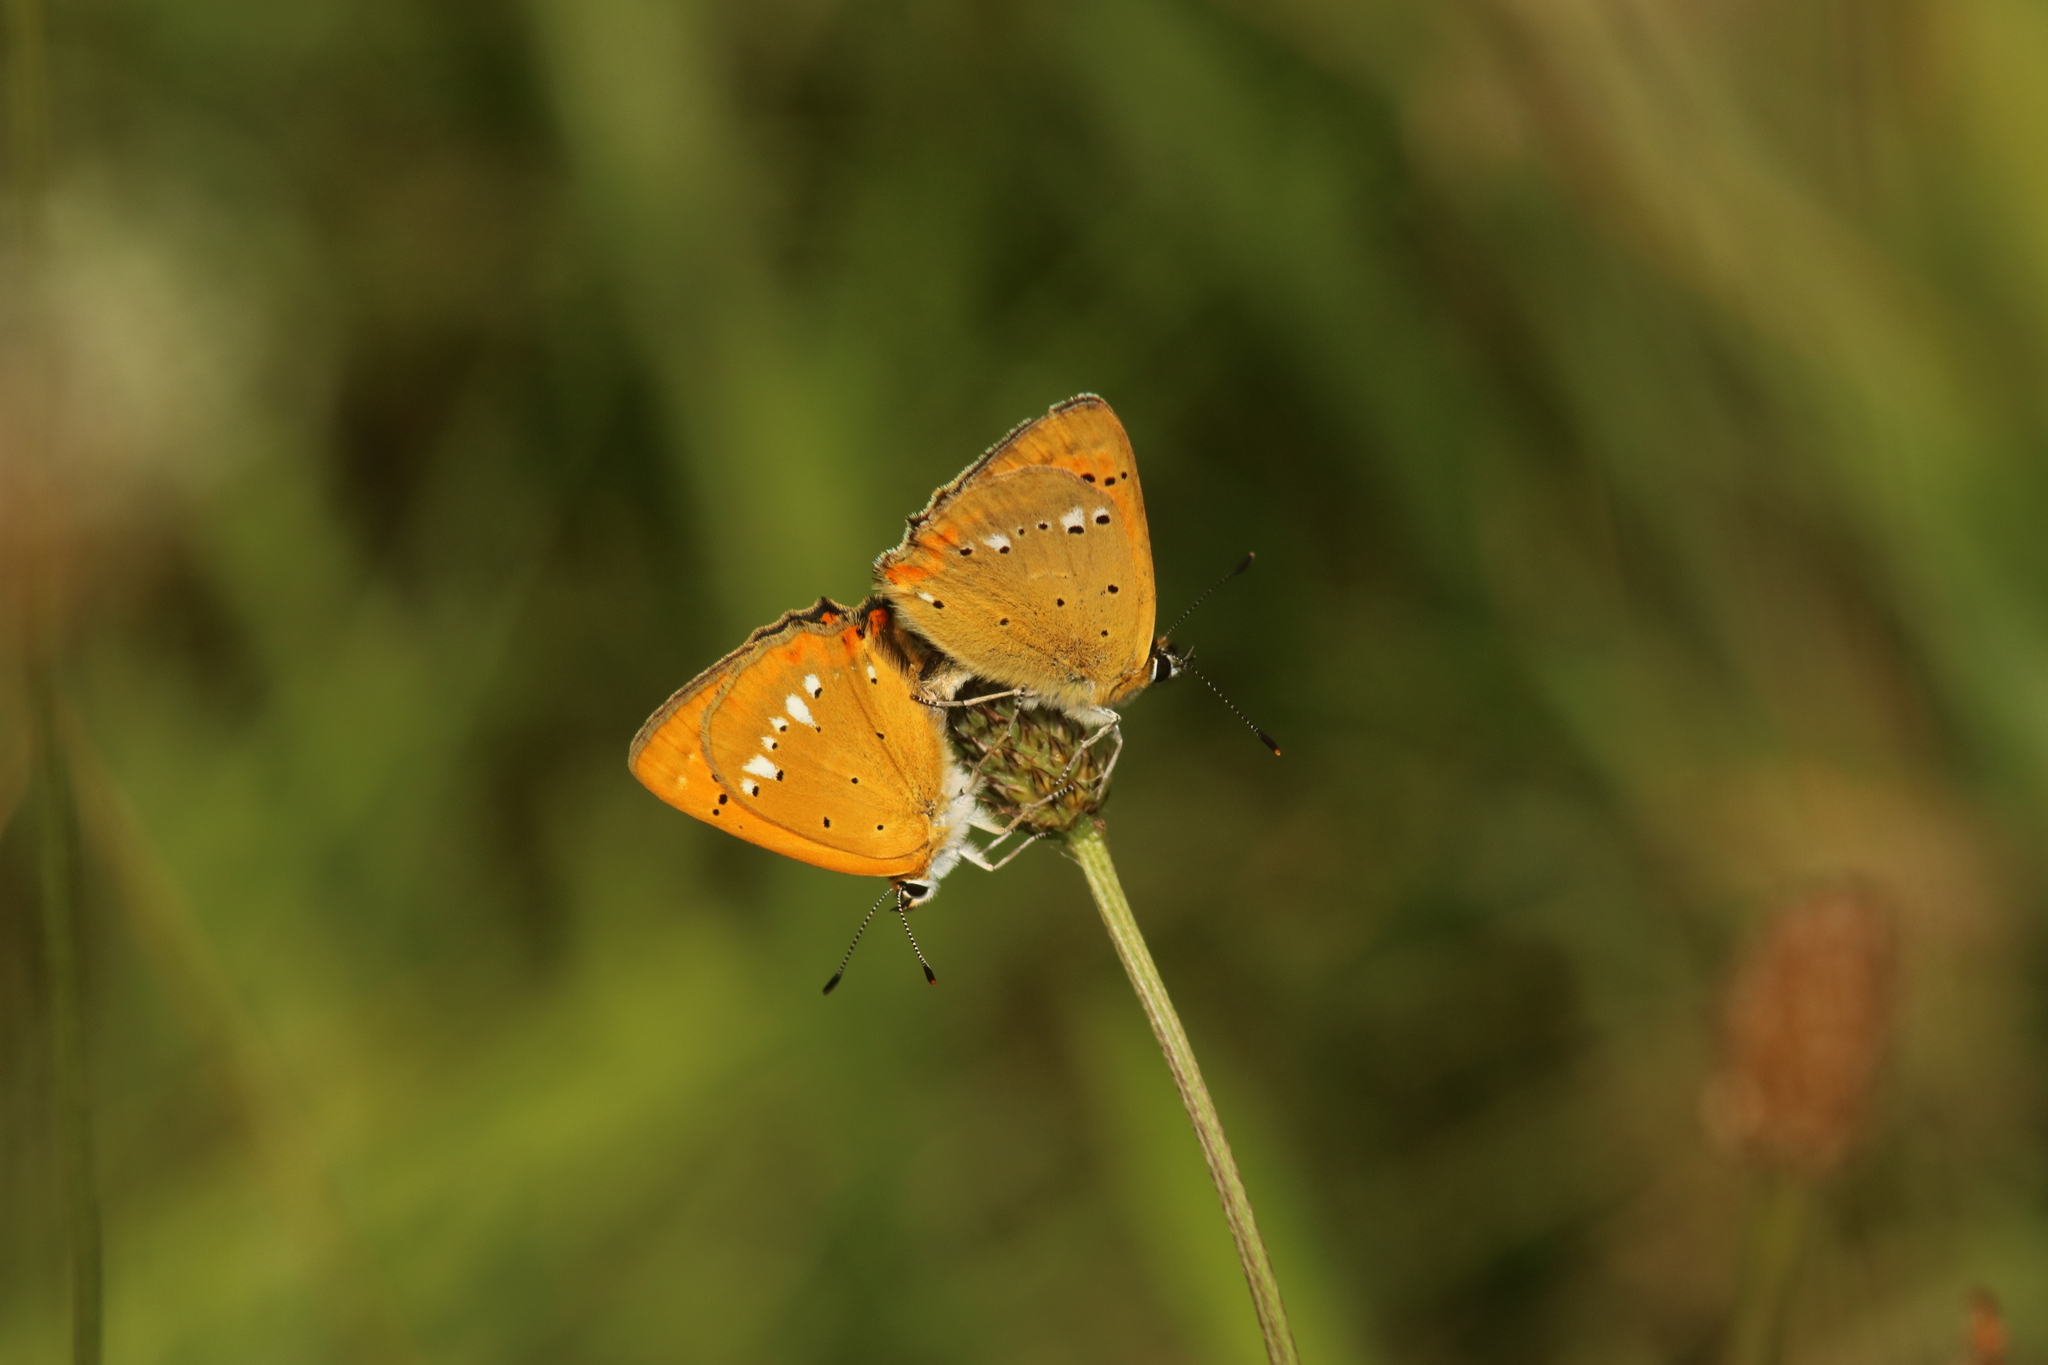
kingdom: Animalia
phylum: Arthropoda
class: Insecta
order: Lepidoptera
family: Lycaenidae
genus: Lycaena
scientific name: Lycaena virgaureae
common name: Scarce copper
